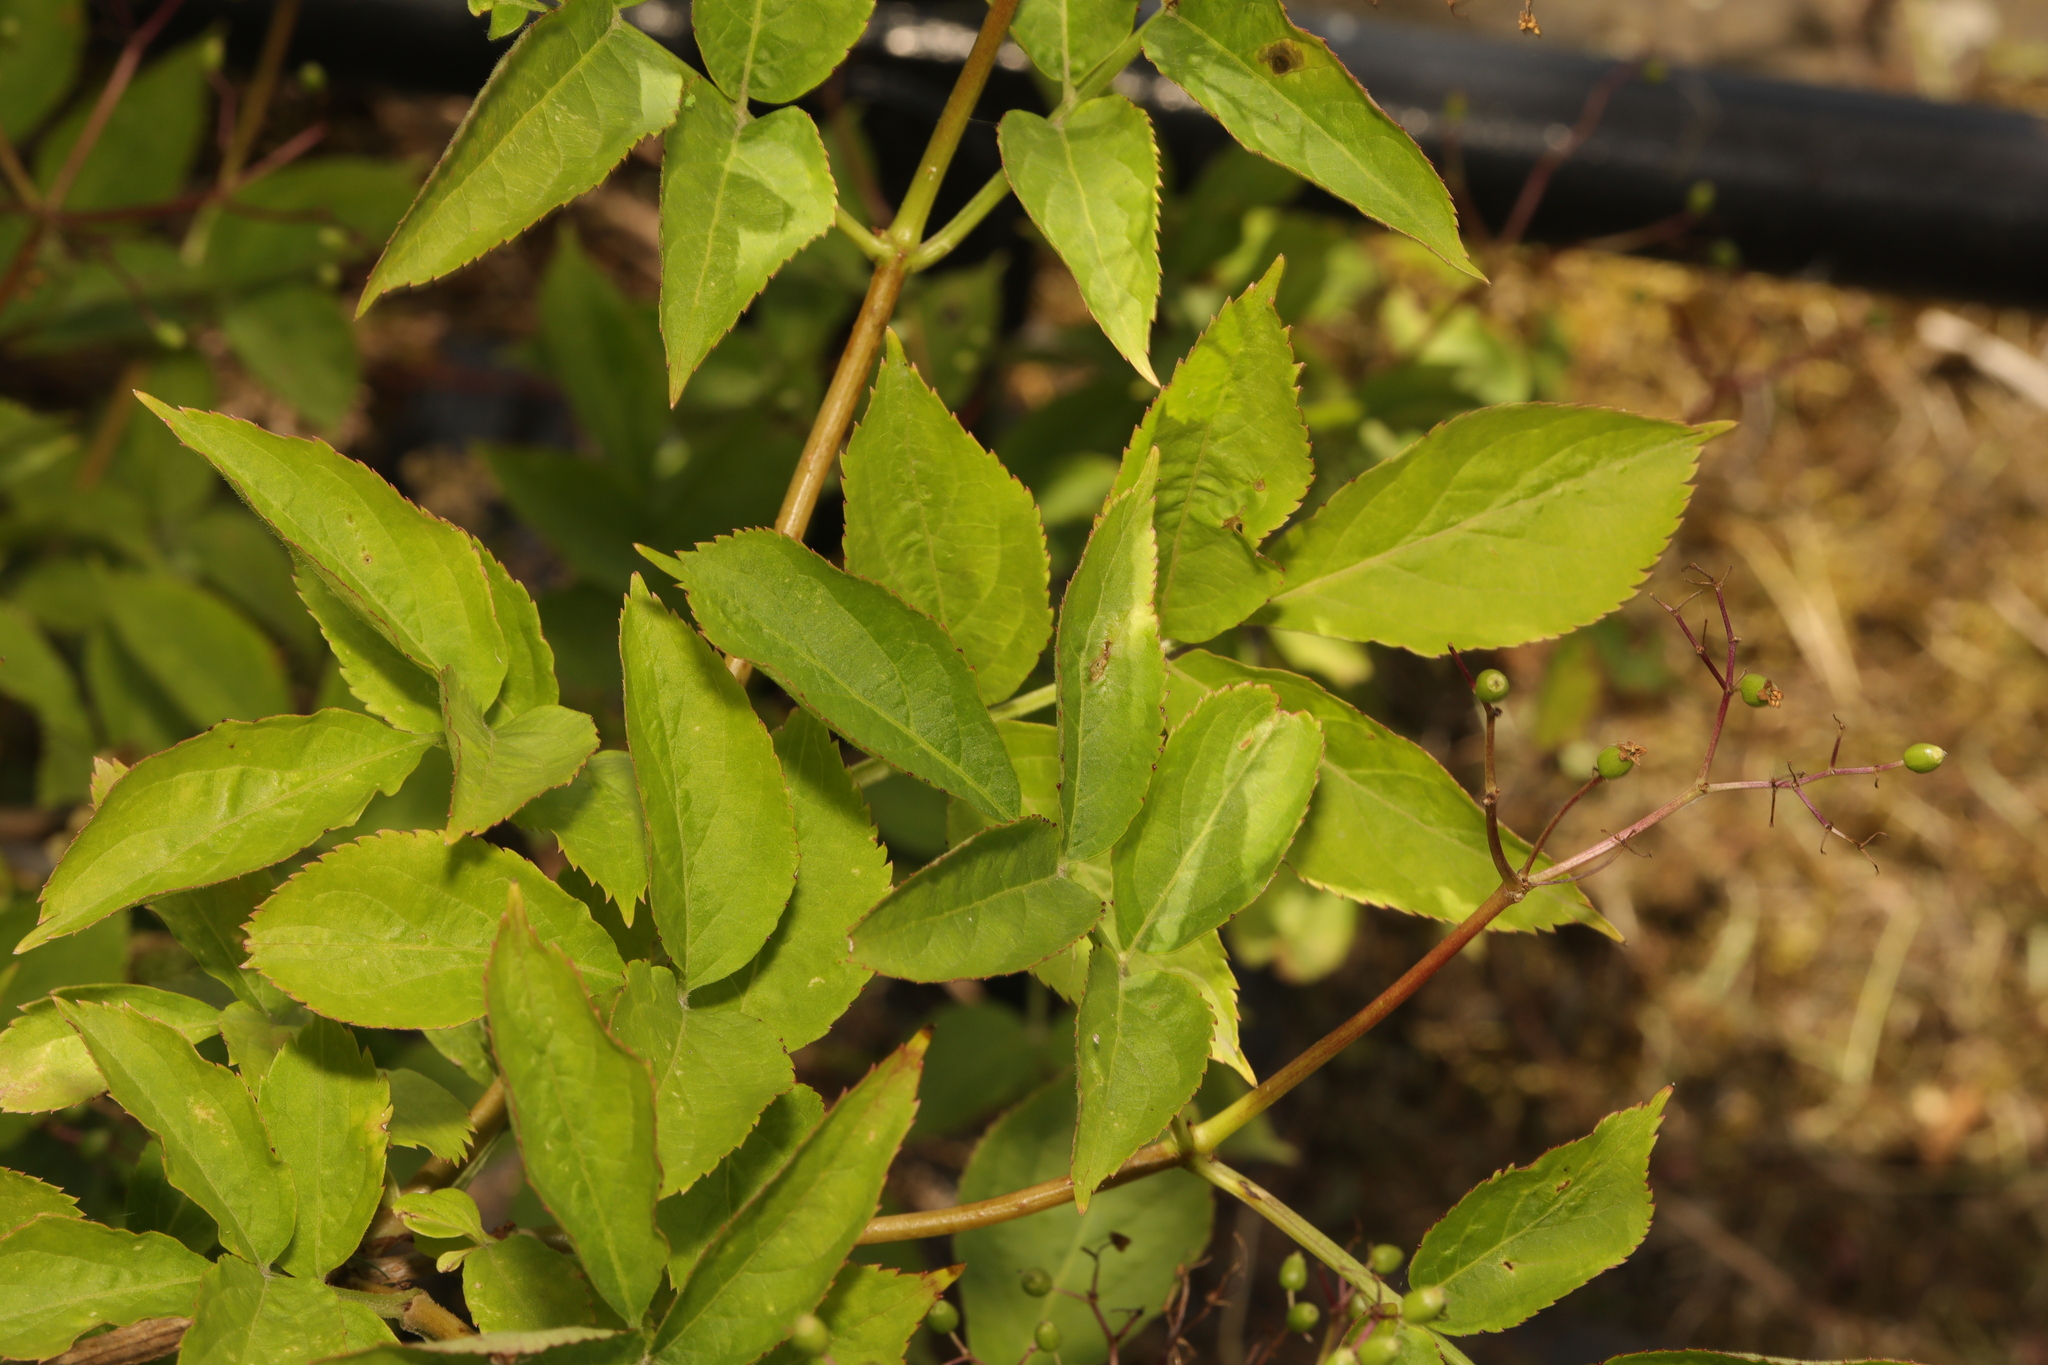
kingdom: Plantae
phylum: Tracheophyta
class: Magnoliopsida
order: Dipsacales
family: Viburnaceae
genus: Sambucus
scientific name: Sambucus nigra
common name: Elder
